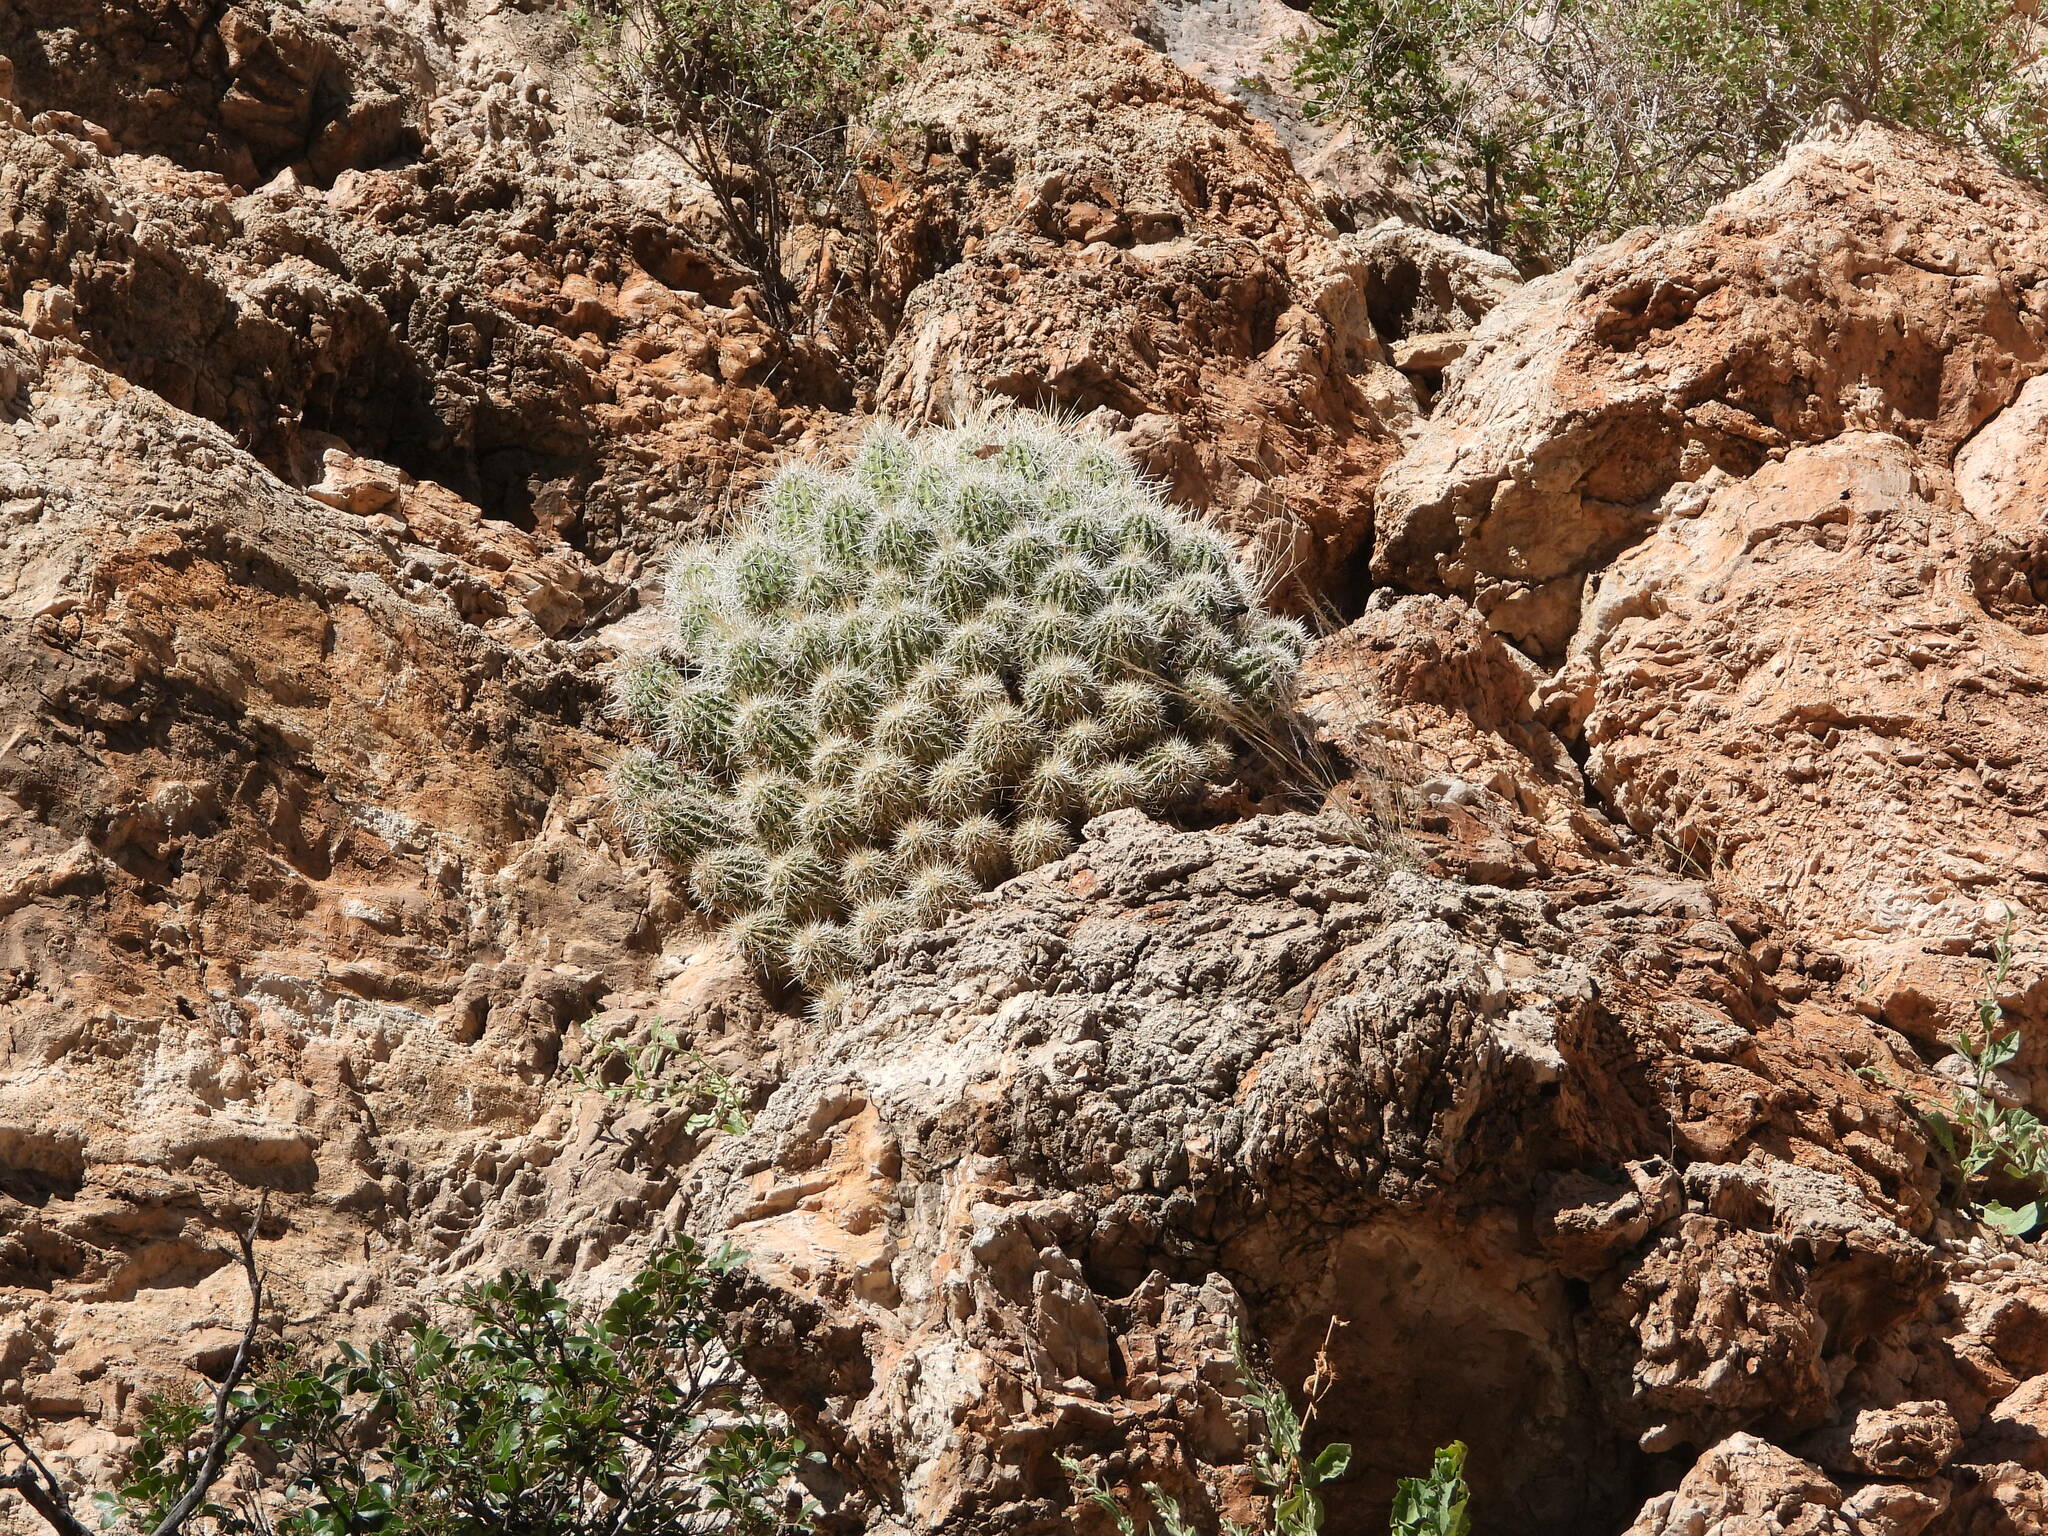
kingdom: Plantae
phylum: Tracheophyta
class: Magnoliopsida
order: Caryophyllales
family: Cactaceae
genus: Echinocereus
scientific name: Echinocereus stramineus
